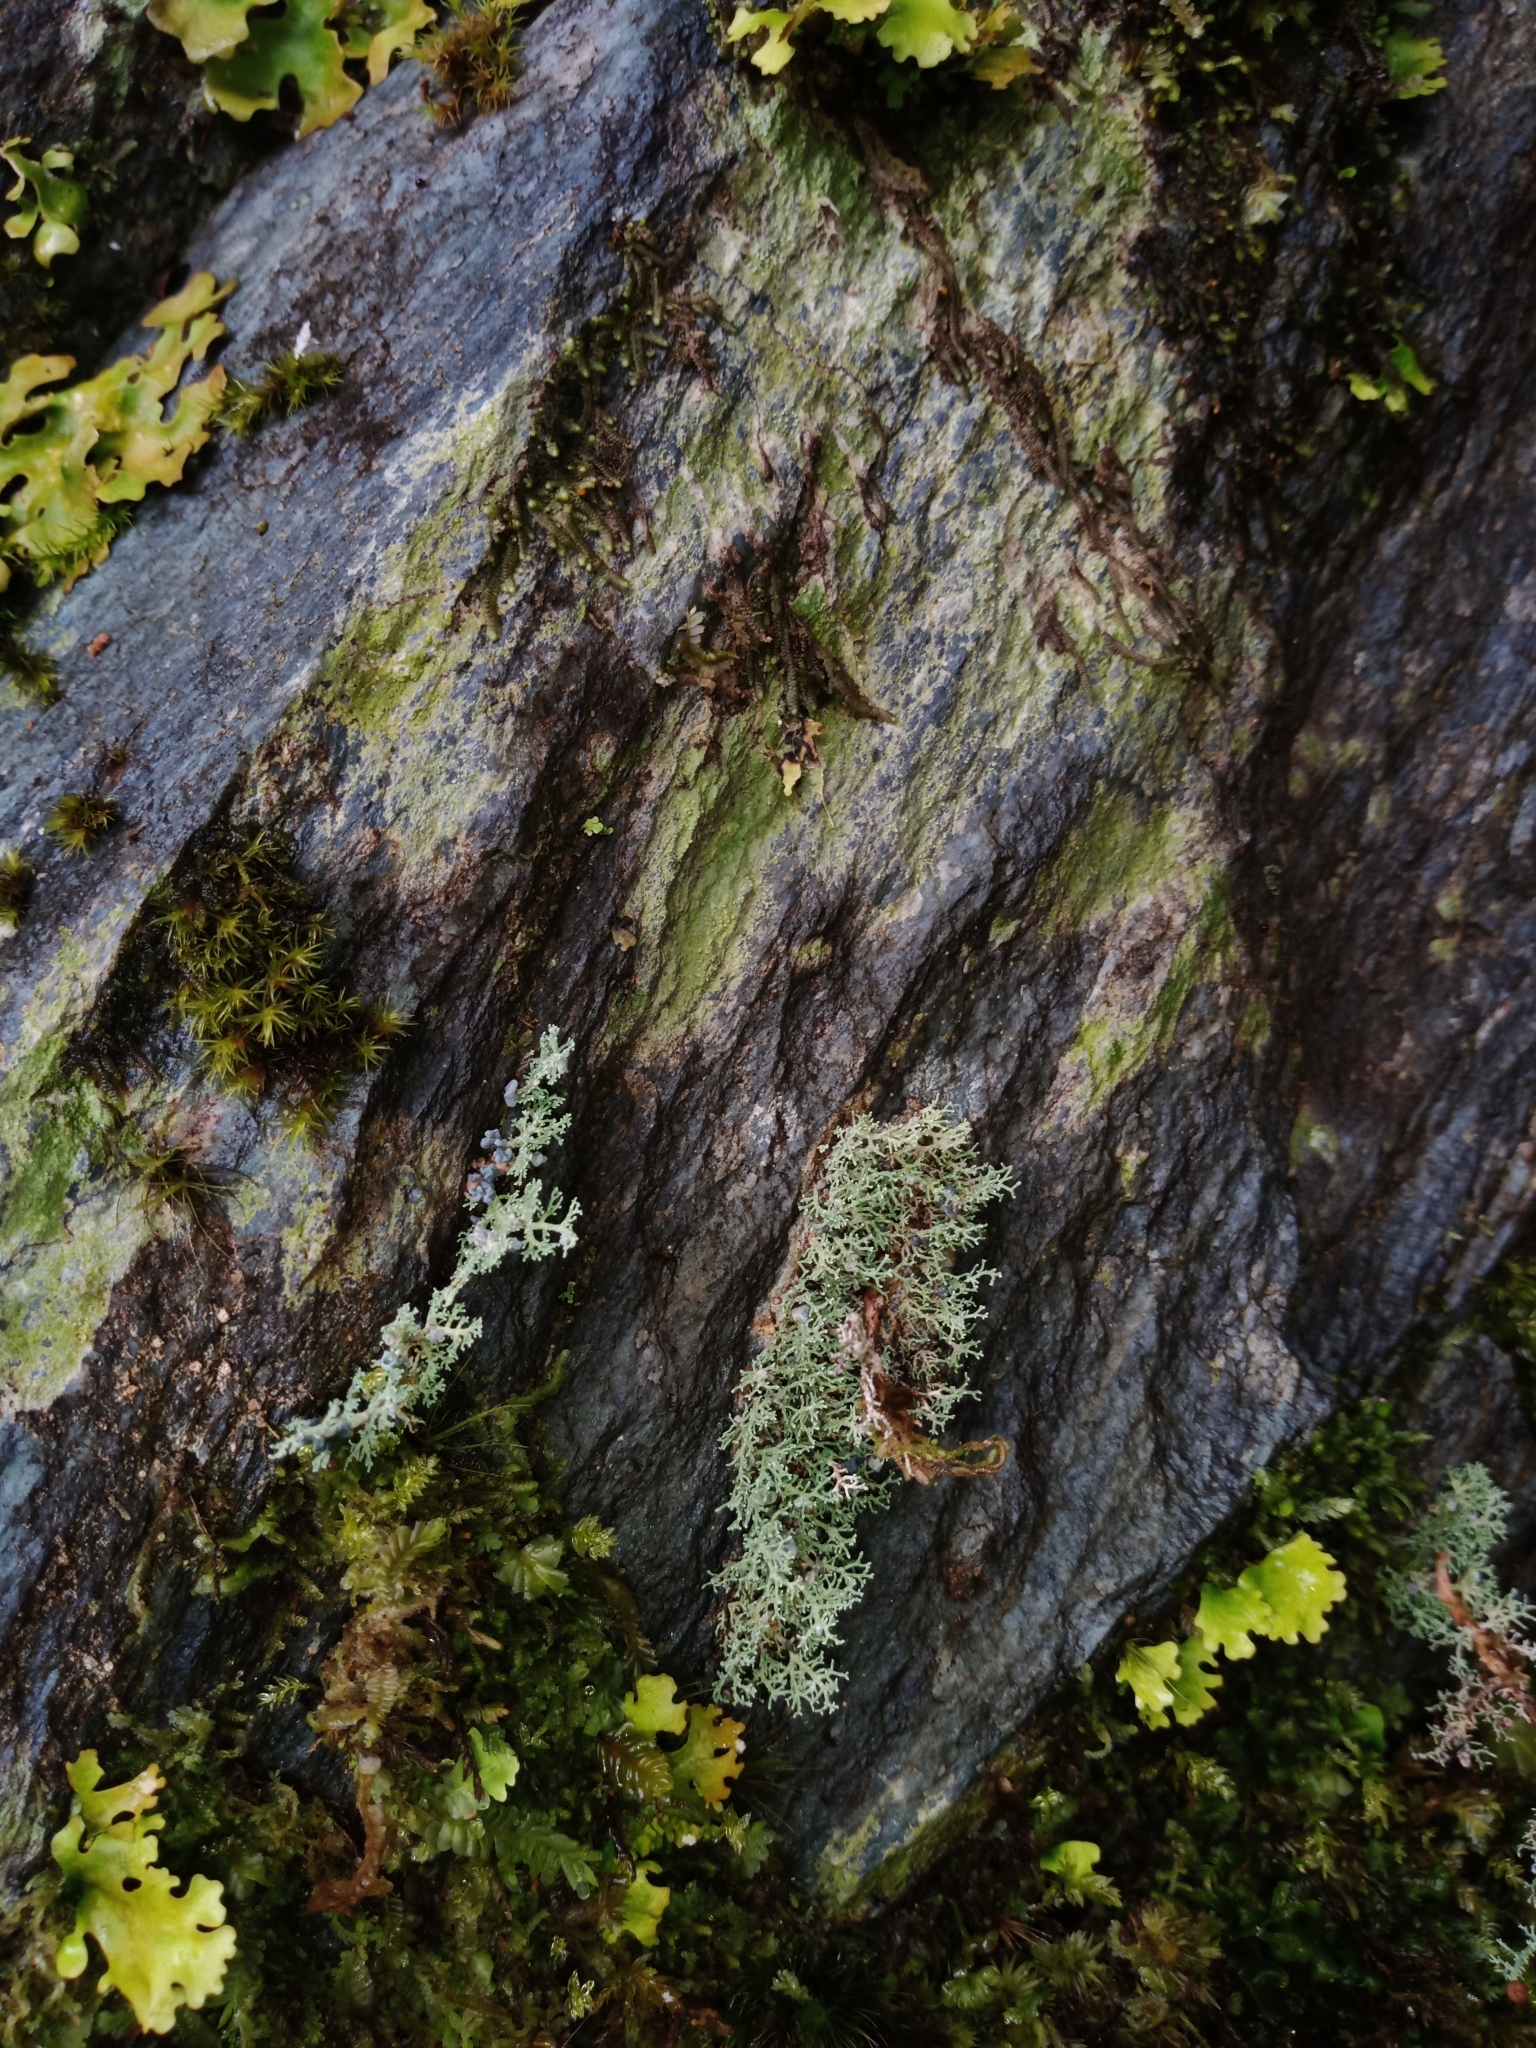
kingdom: Fungi
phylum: Ascomycota
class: Lecanoromycetes
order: Lecanorales
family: Stereocaulaceae
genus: Stereocaulon
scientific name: Stereocaulon ramulosum
